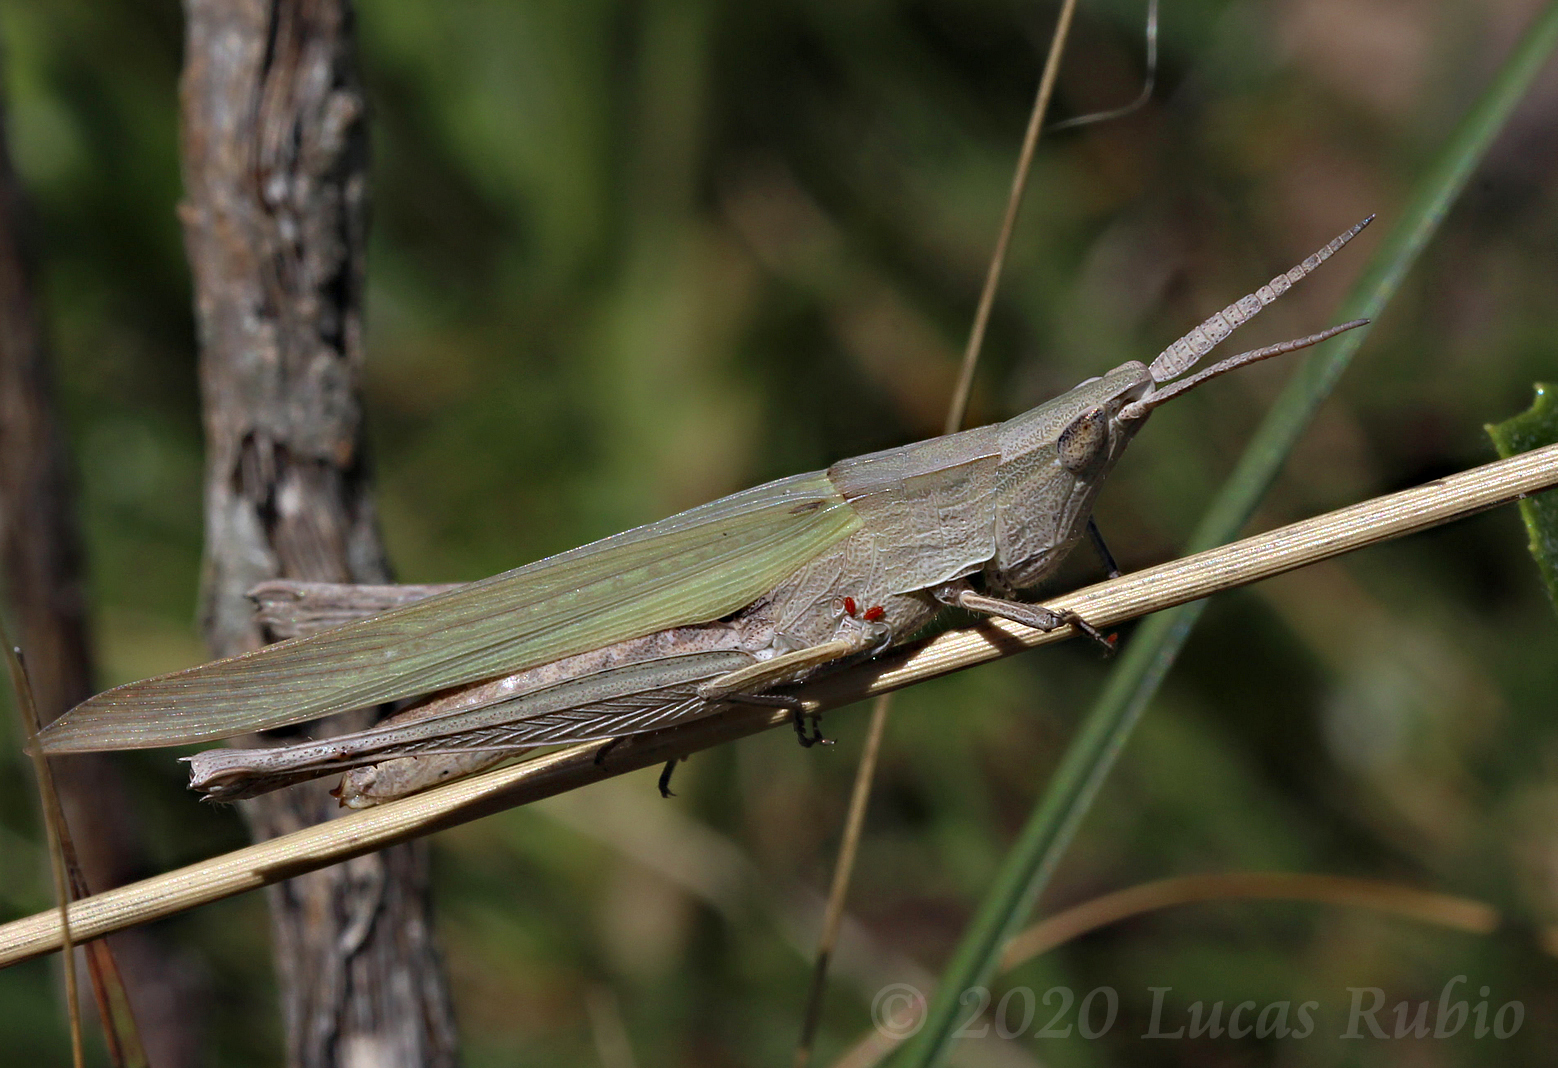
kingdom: Animalia
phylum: Arthropoda
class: Insecta
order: Orthoptera
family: Acrididae
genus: Allotruxalis
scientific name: Allotruxalis gracilis
